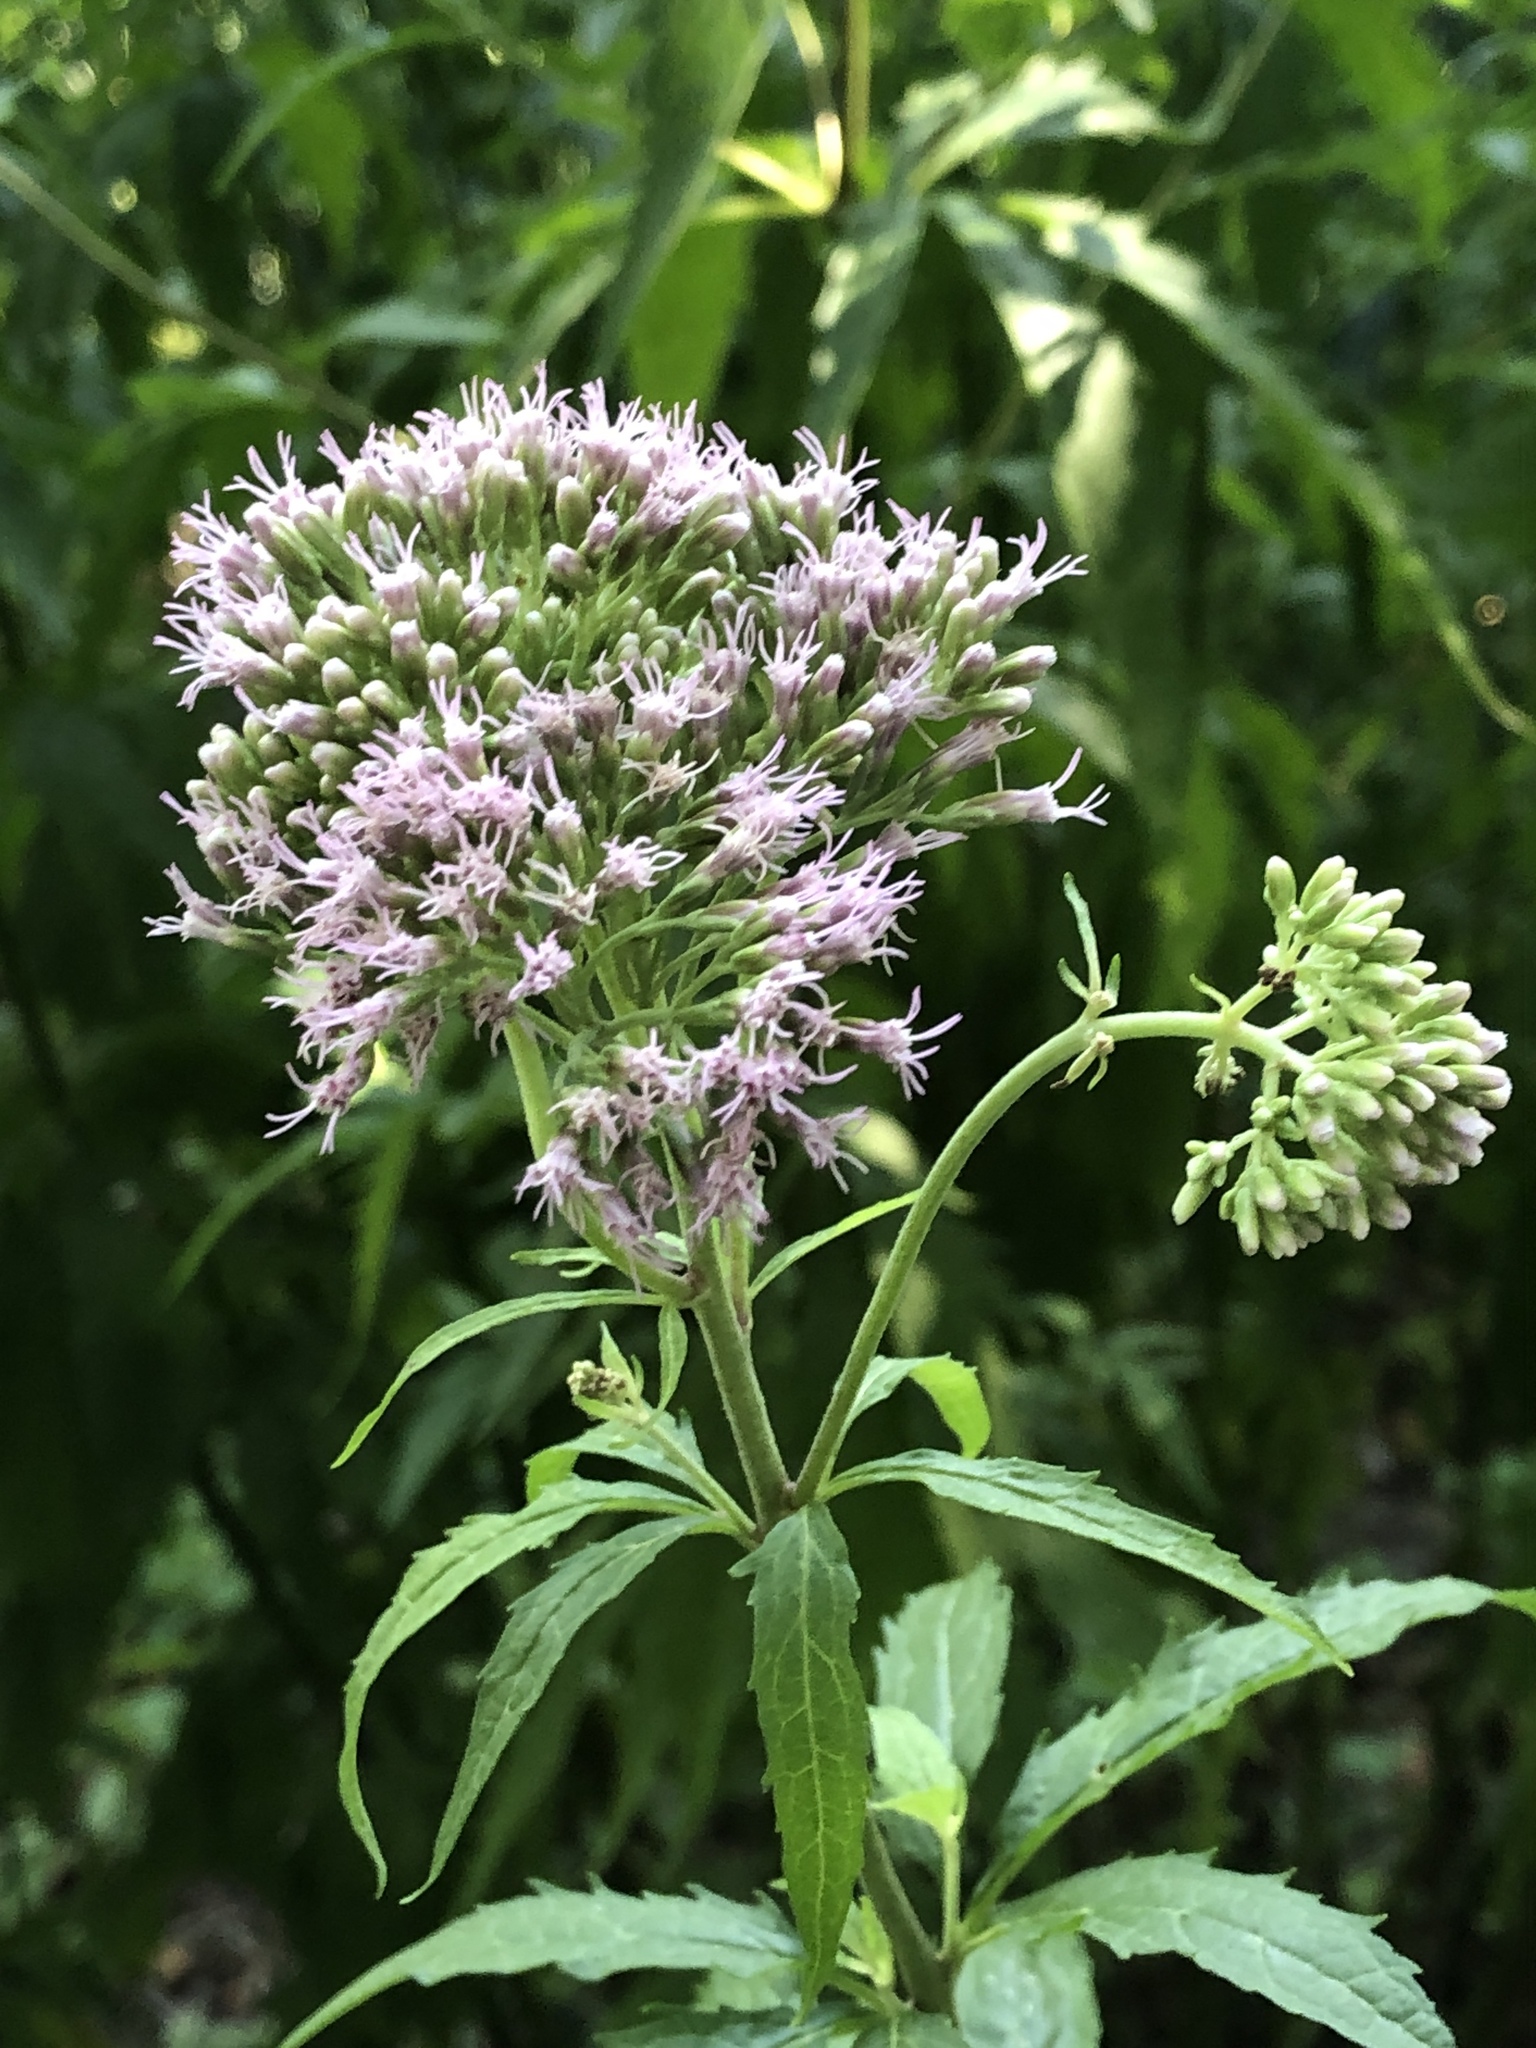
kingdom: Plantae
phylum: Tracheophyta
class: Magnoliopsida
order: Asterales
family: Asteraceae
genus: Eupatorium
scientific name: Eupatorium cannabinum
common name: Hemp-agrimony
